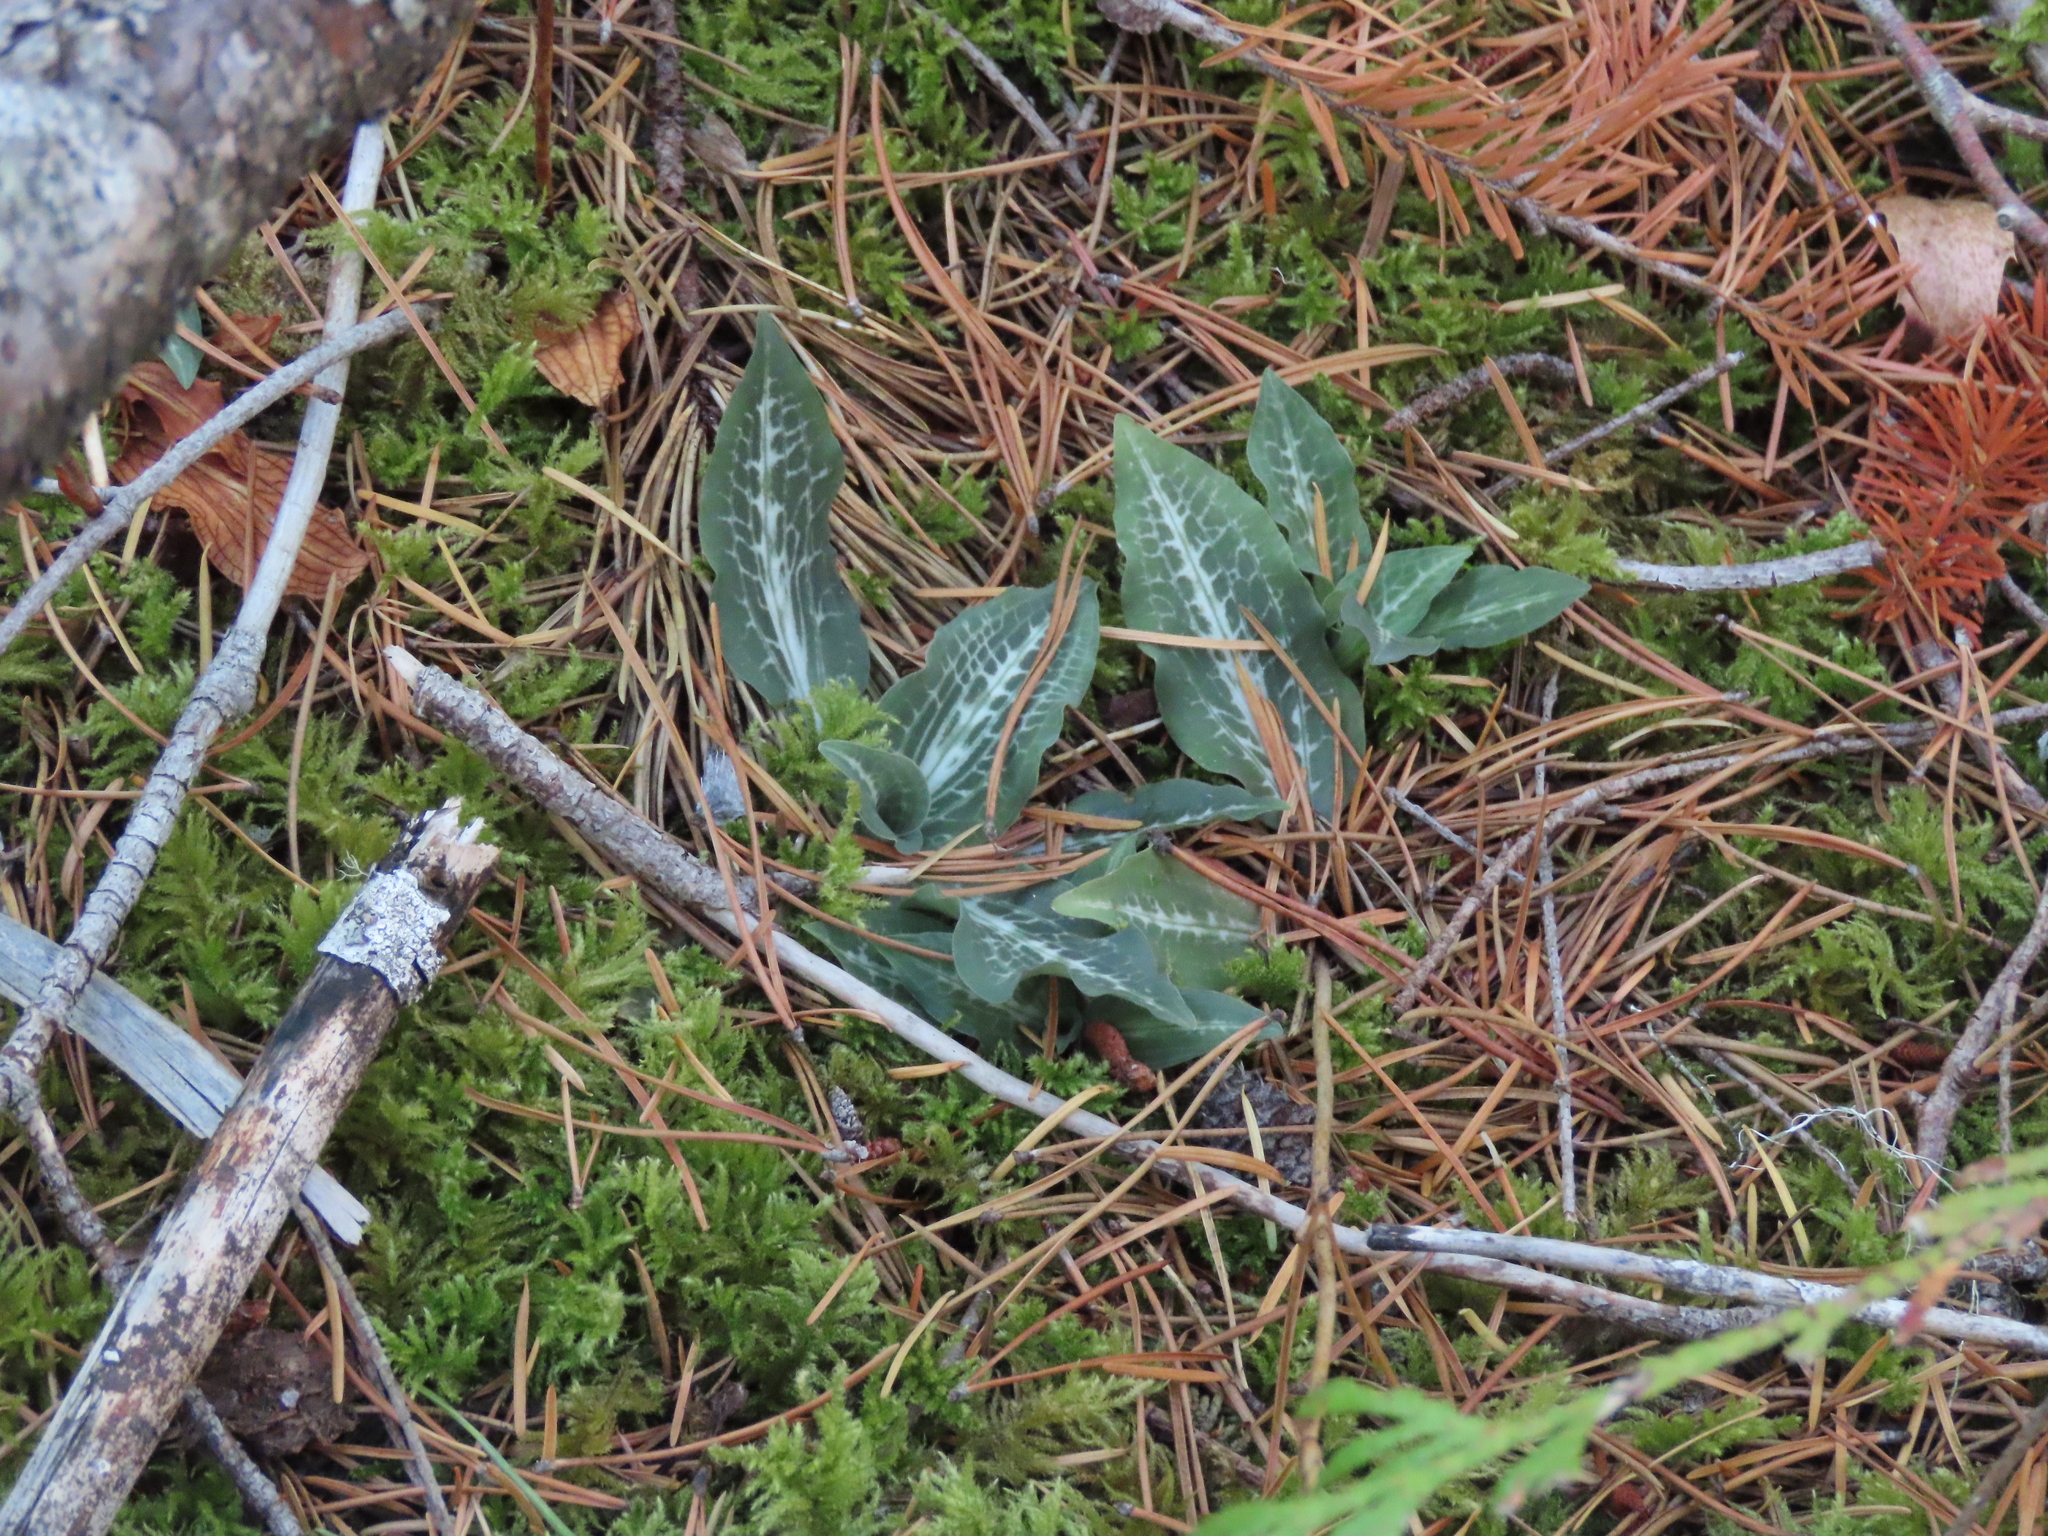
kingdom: Plantae
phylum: Tracheophyta
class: Liliopsida
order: Asparagales
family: Orchidaceae
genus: Goodyera
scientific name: Goodyera oblongifolia
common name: Giant rattlesnake-plantain
